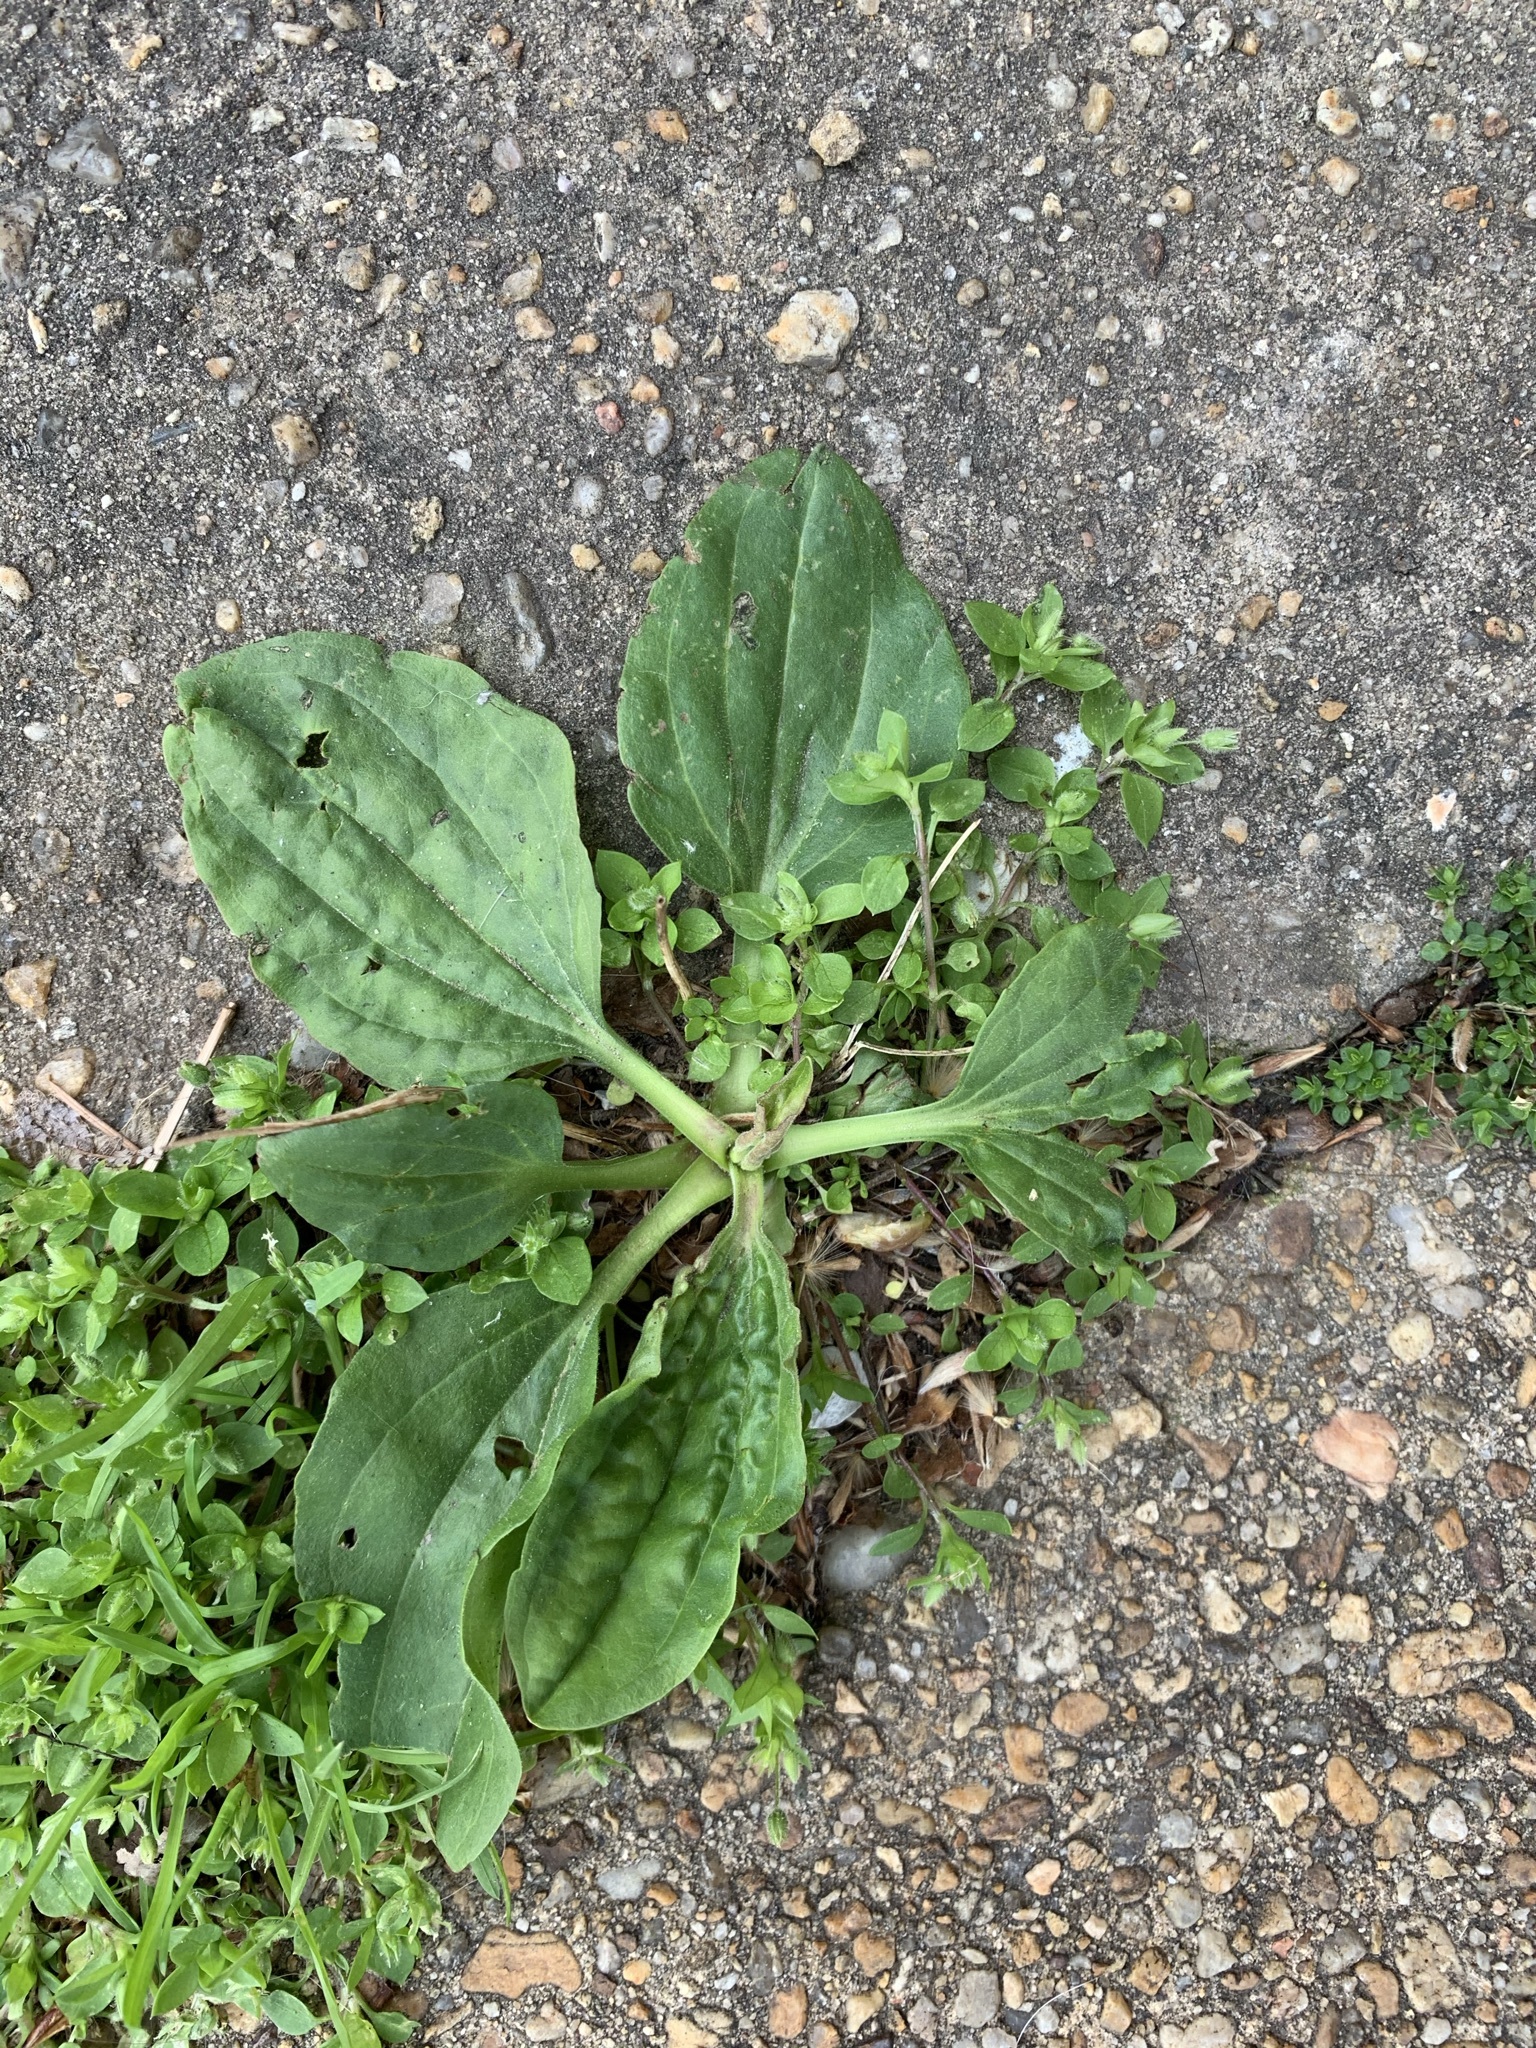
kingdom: Plantae
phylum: Tracheophyta
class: Magnoliopsida
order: Lamiales
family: Plantaginaceae
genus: Plantago
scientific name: Plantago major
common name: Common plantain
